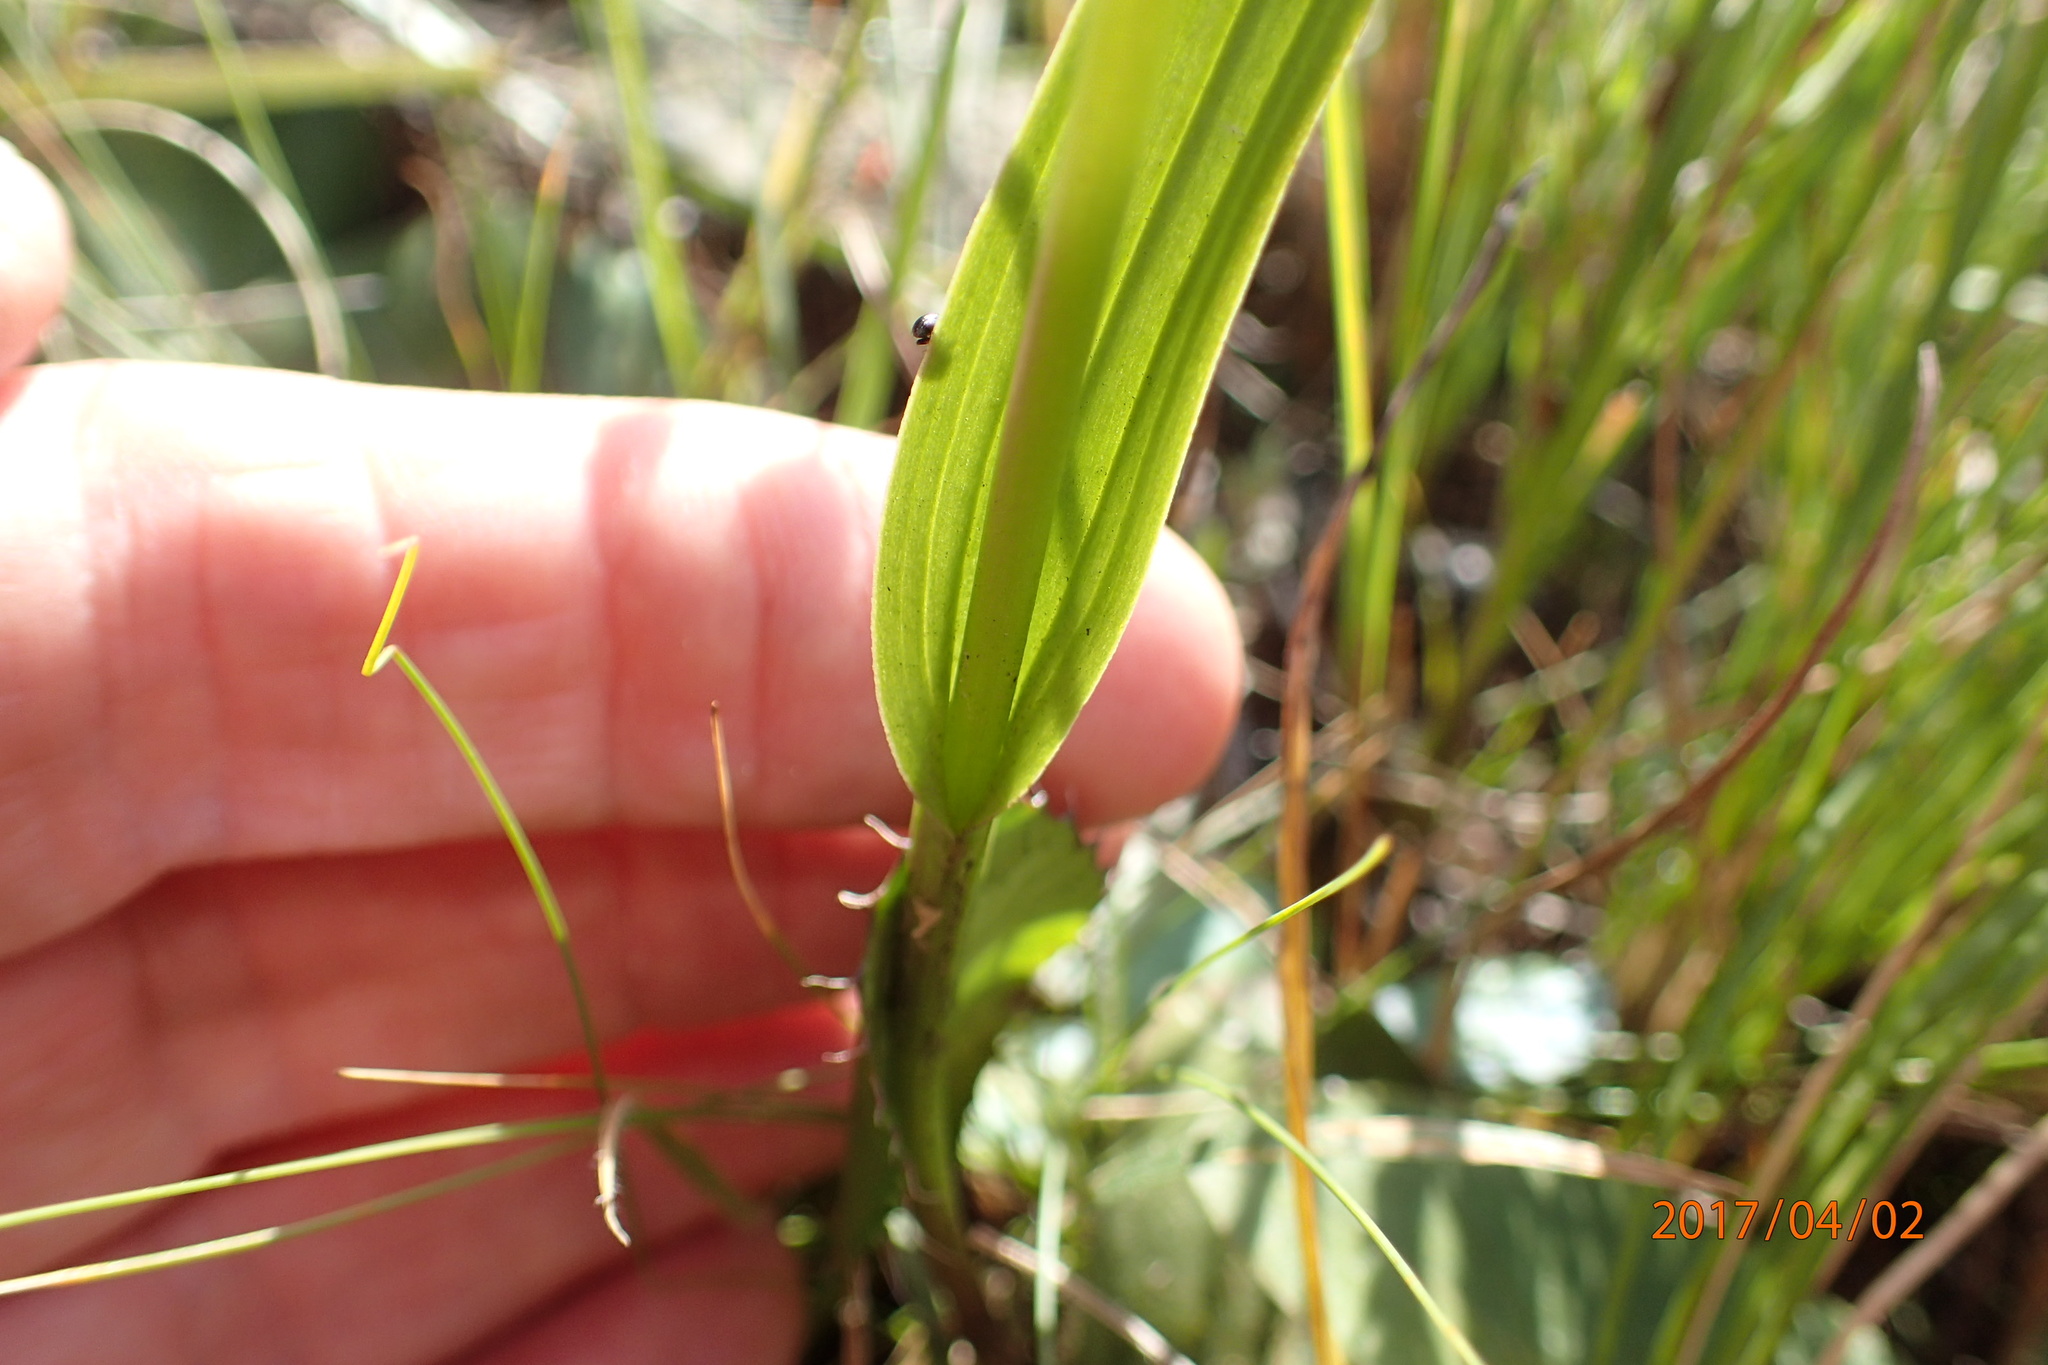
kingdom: Plantae
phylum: Tracheophyta
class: Liliopsida
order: Asparagales
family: Orchidaceae
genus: Brownleea
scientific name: Brownleea galpinii
